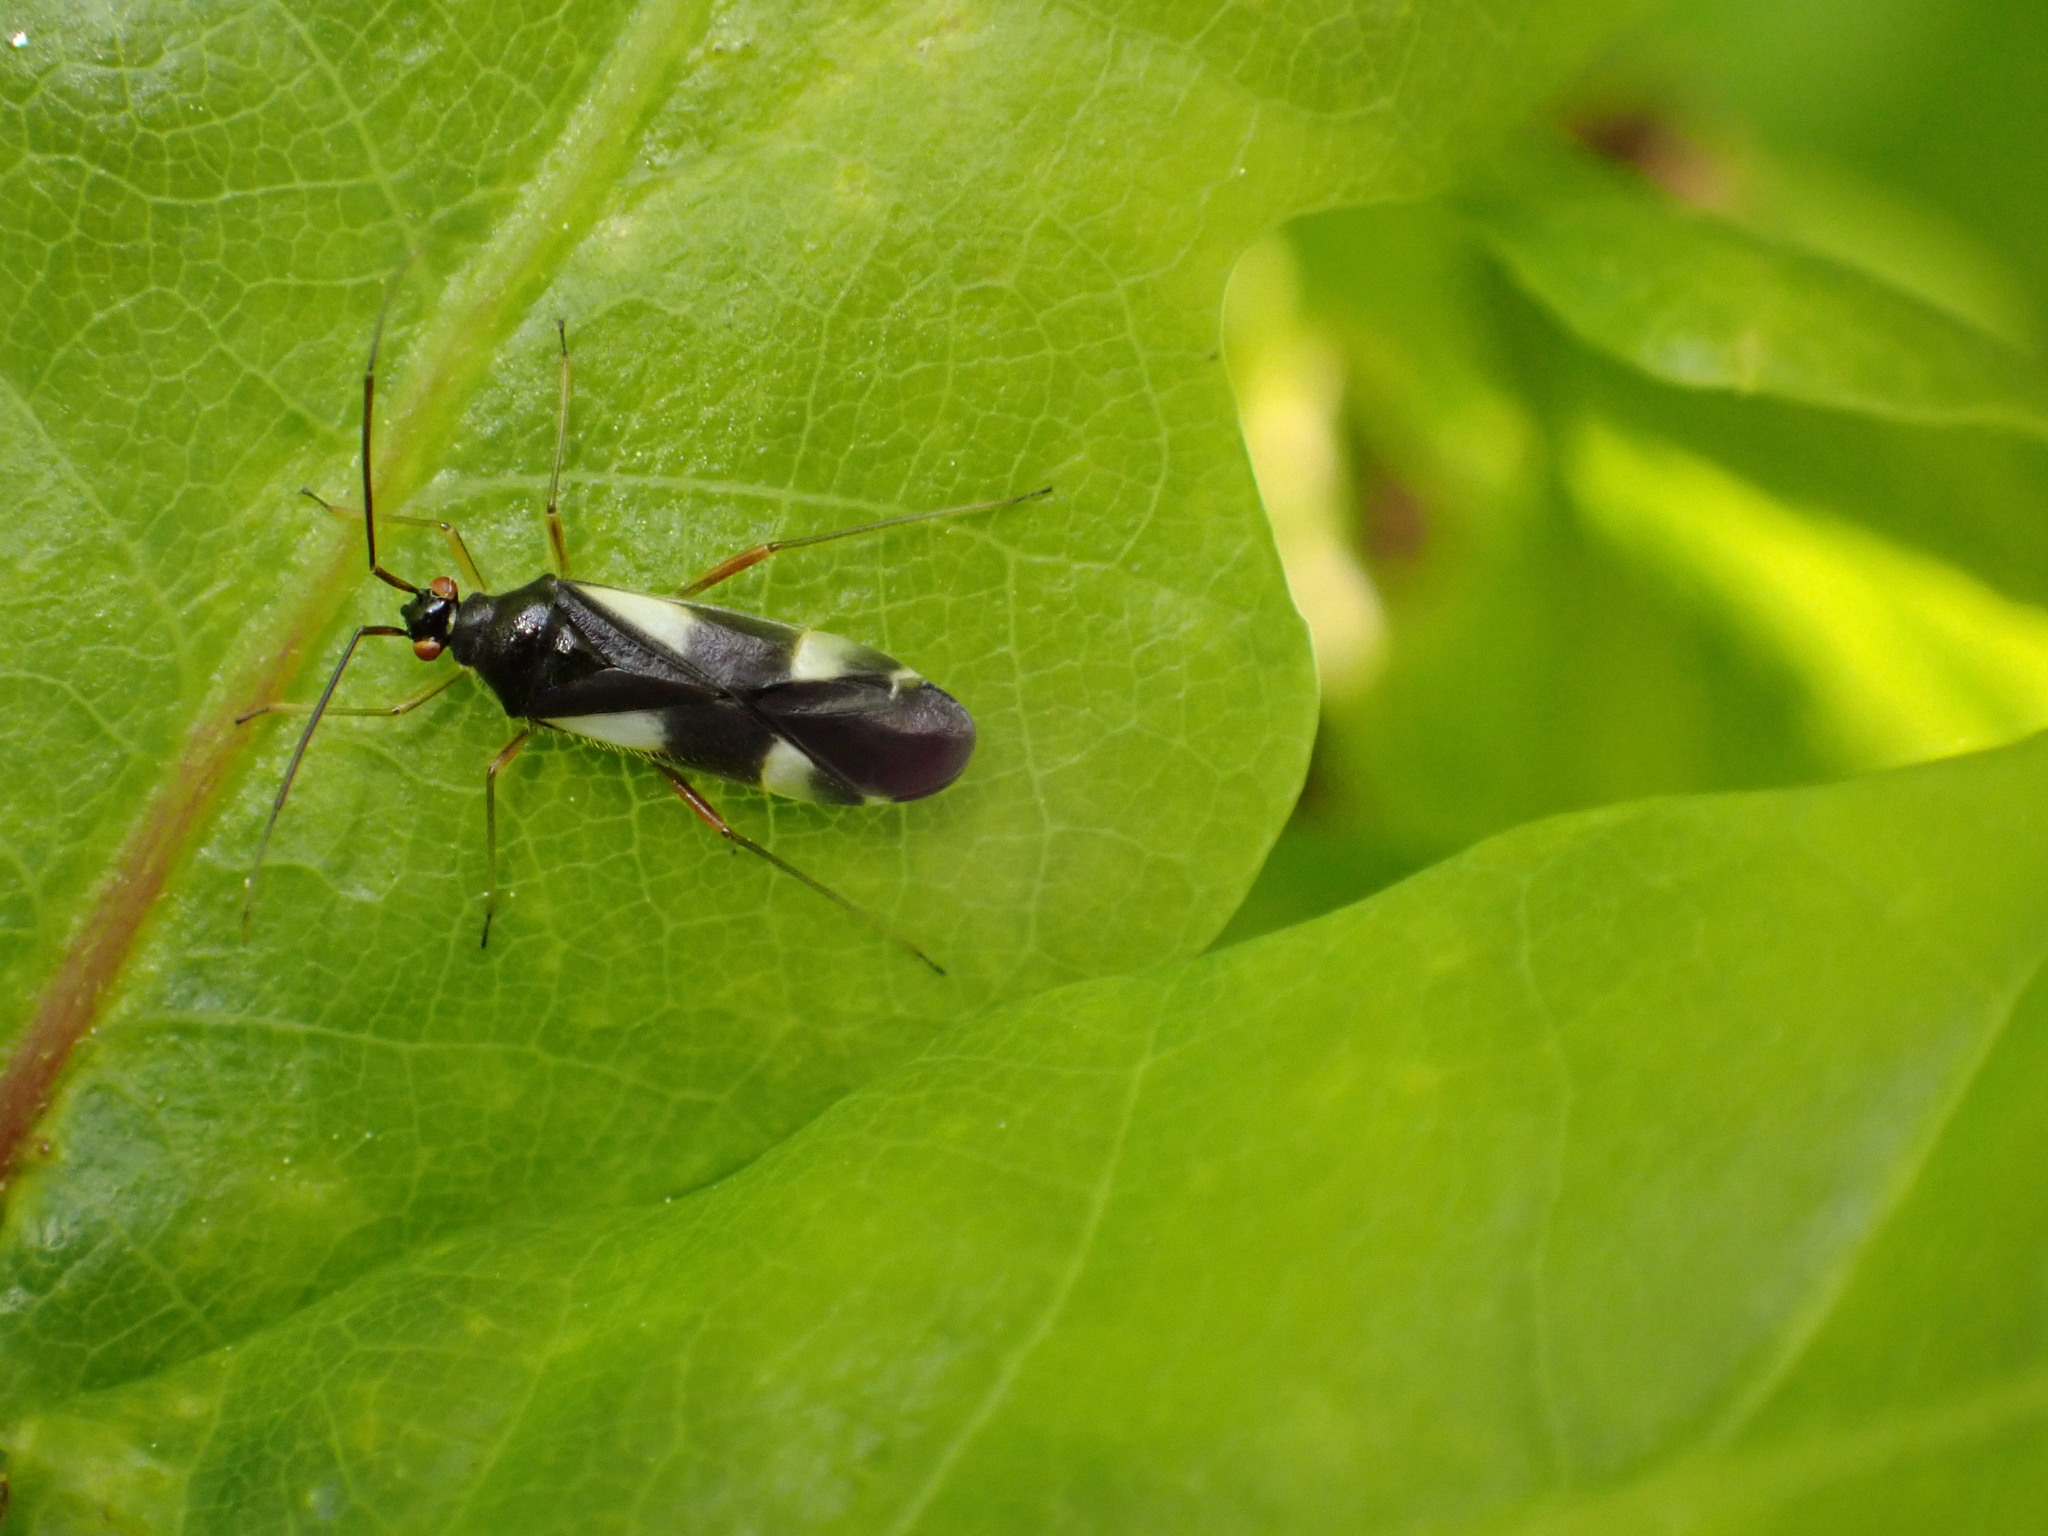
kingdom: Animalia
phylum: Arthropoda
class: Insecta
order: Hemiptera
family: Miridae
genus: Dryophilocoris
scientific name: Dryophilocoris flavoquadrimaculatus
